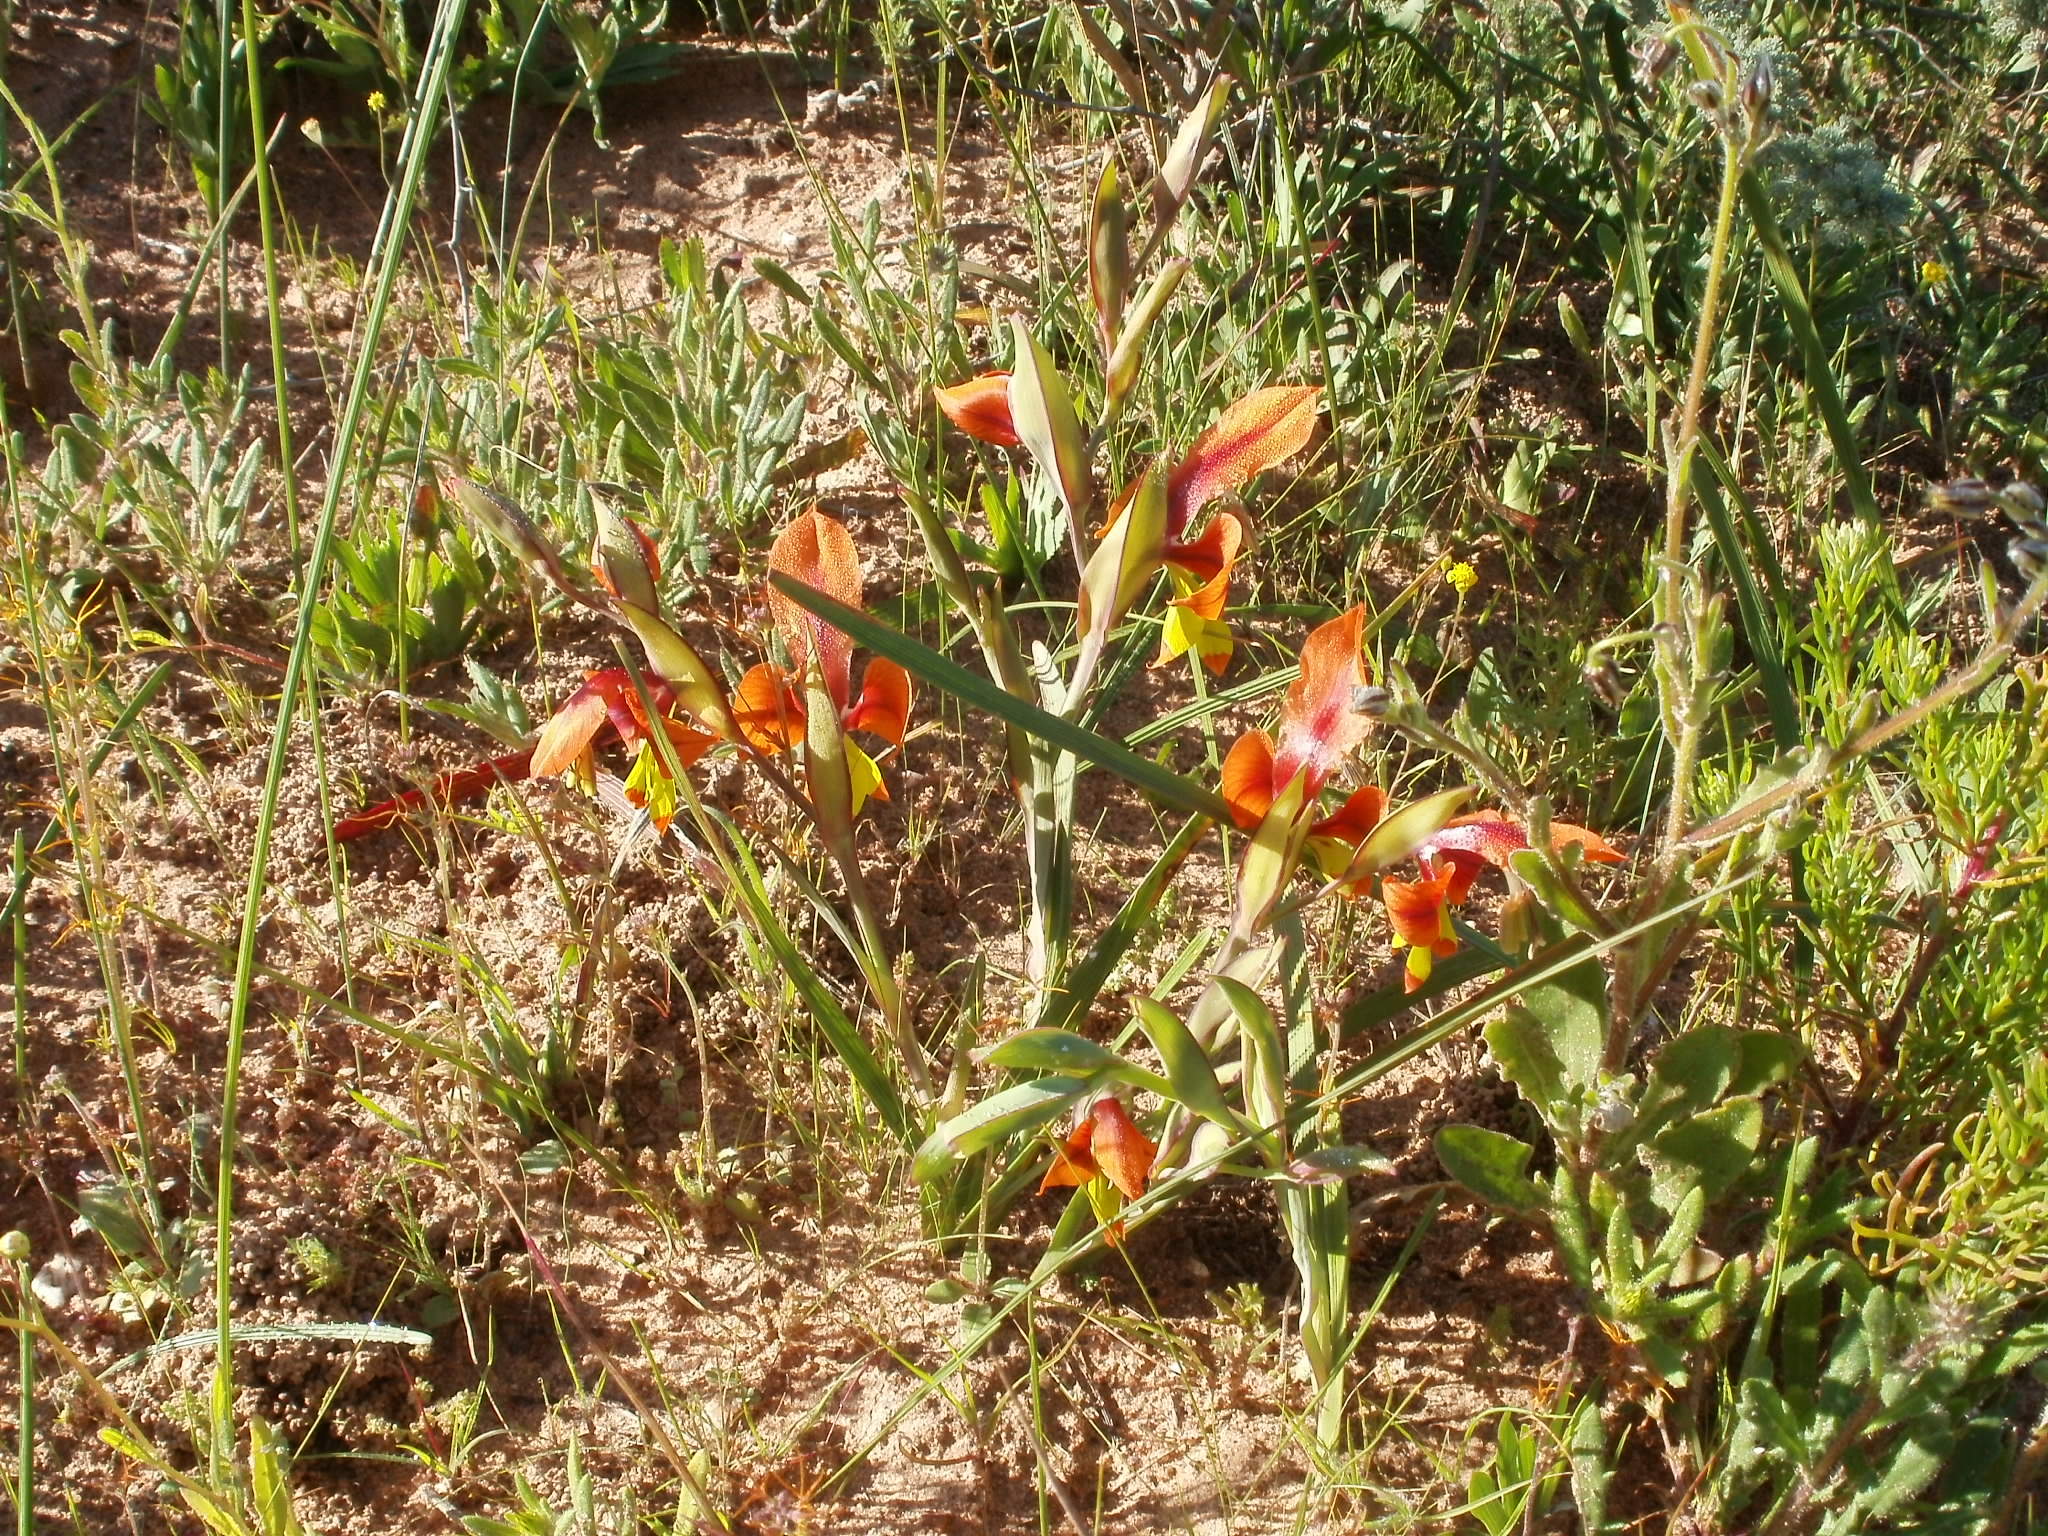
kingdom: Plantae
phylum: Tracheophyta
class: Liliopsida
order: Asparagales
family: Iridaceae
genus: Gladiolus
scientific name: Gladiolus alatus
